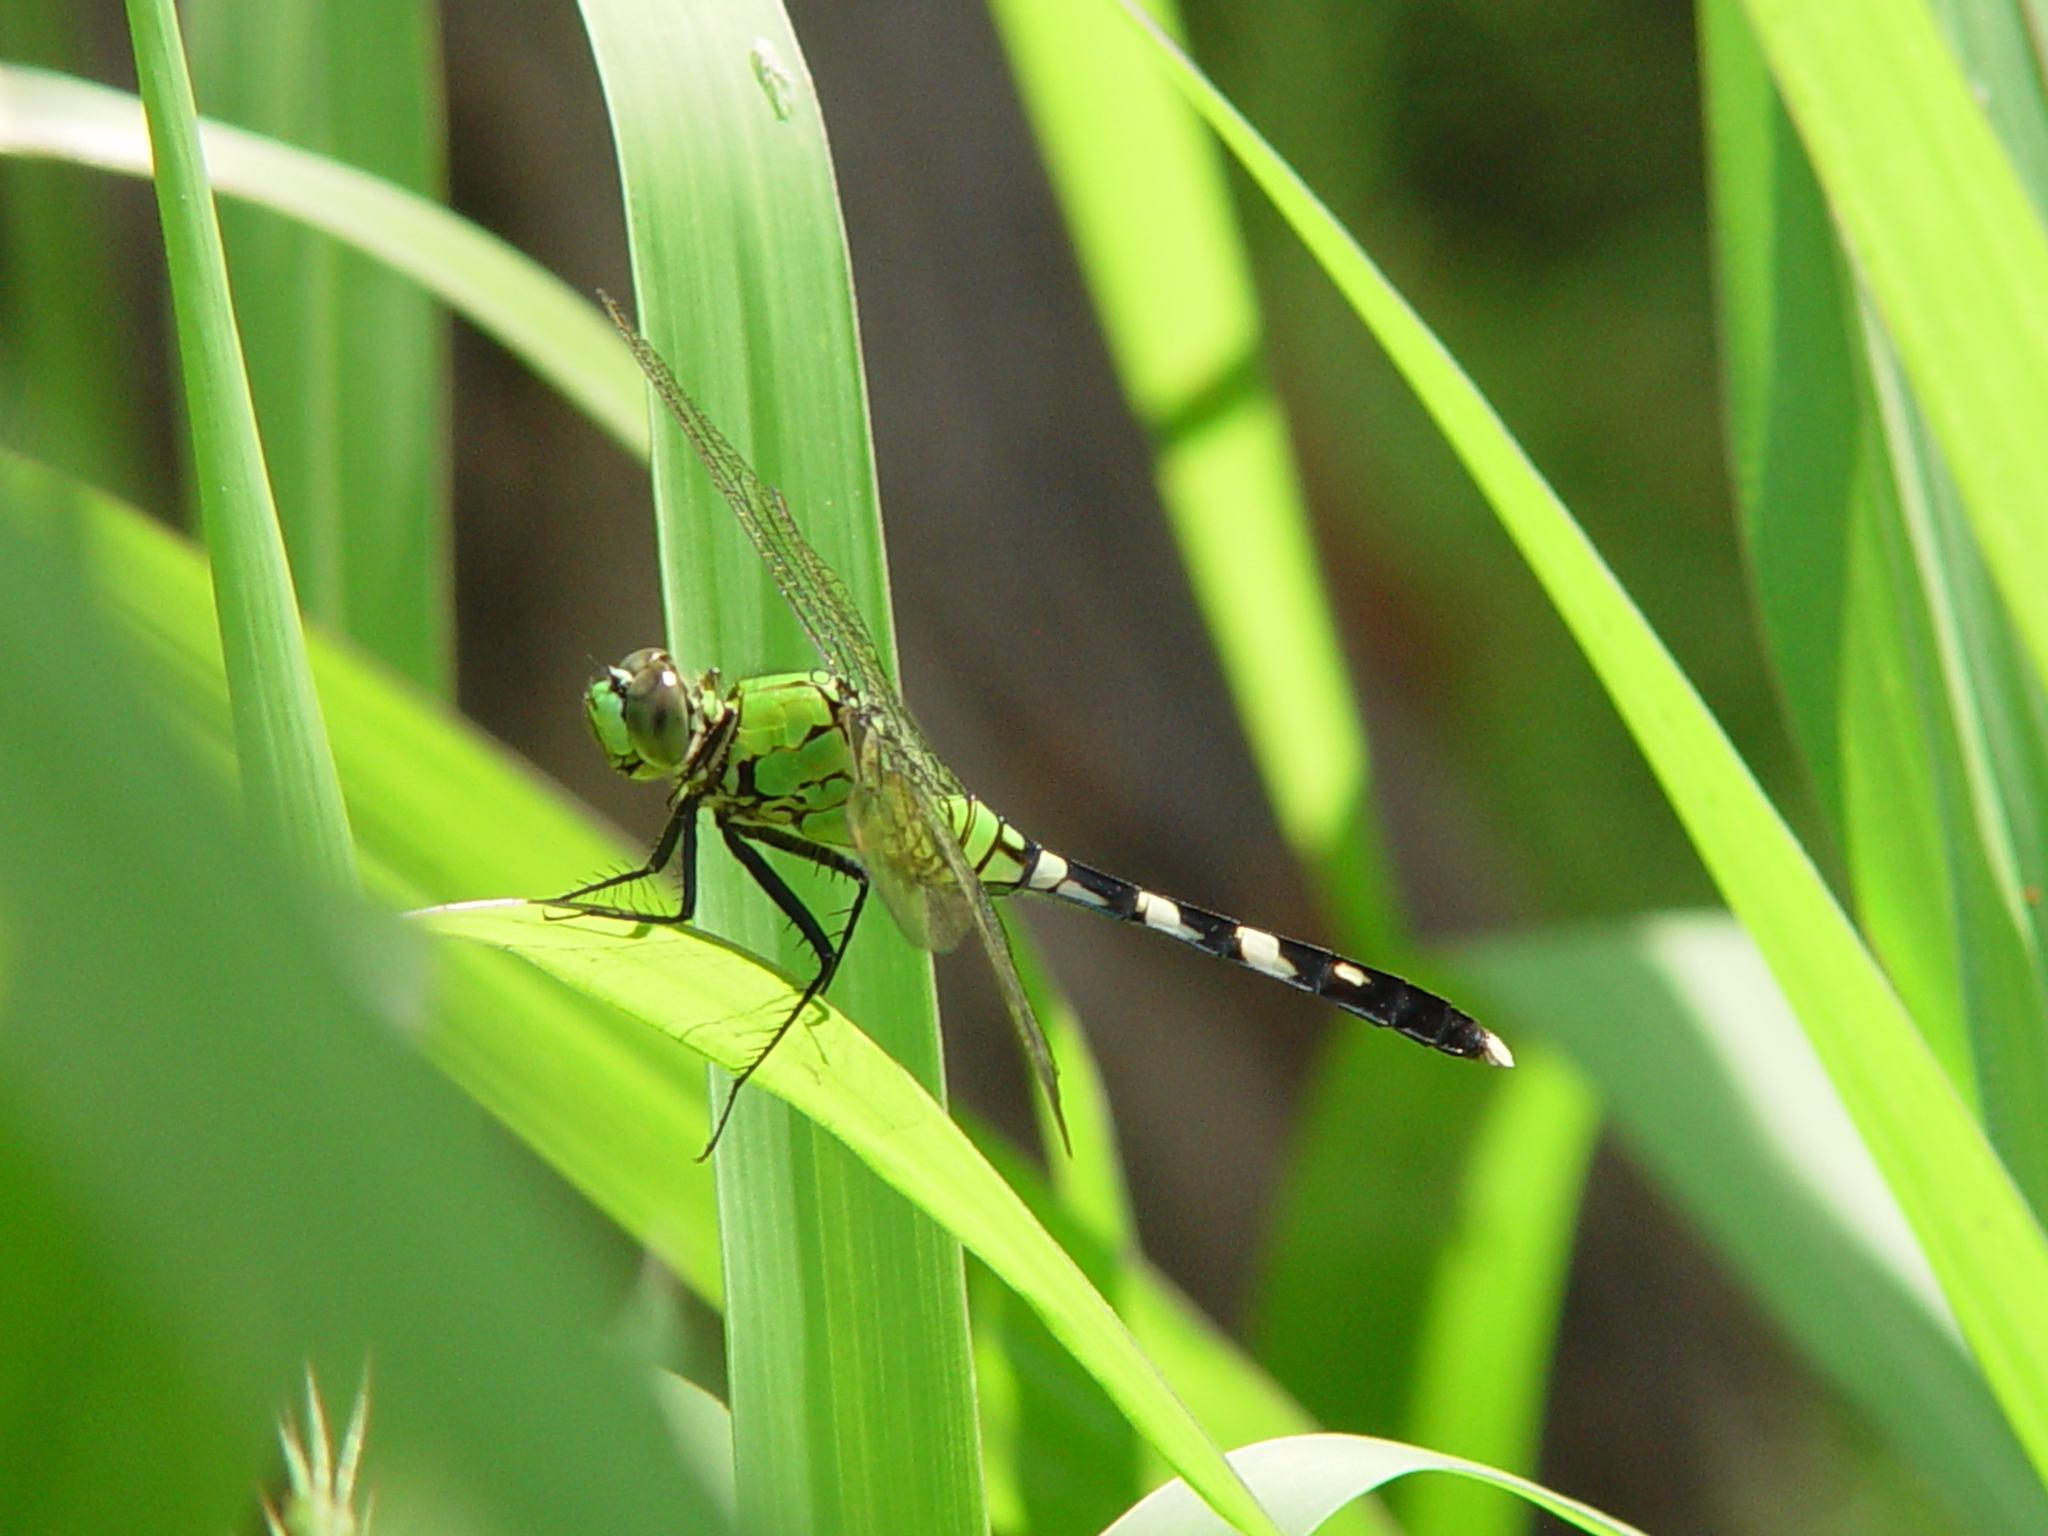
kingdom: Animalia
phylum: Arthropoda
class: Insecta
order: Odonata
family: Libellulidae
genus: Erythemis
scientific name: Erythemis simplicicollis
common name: Eastern pondhawk
